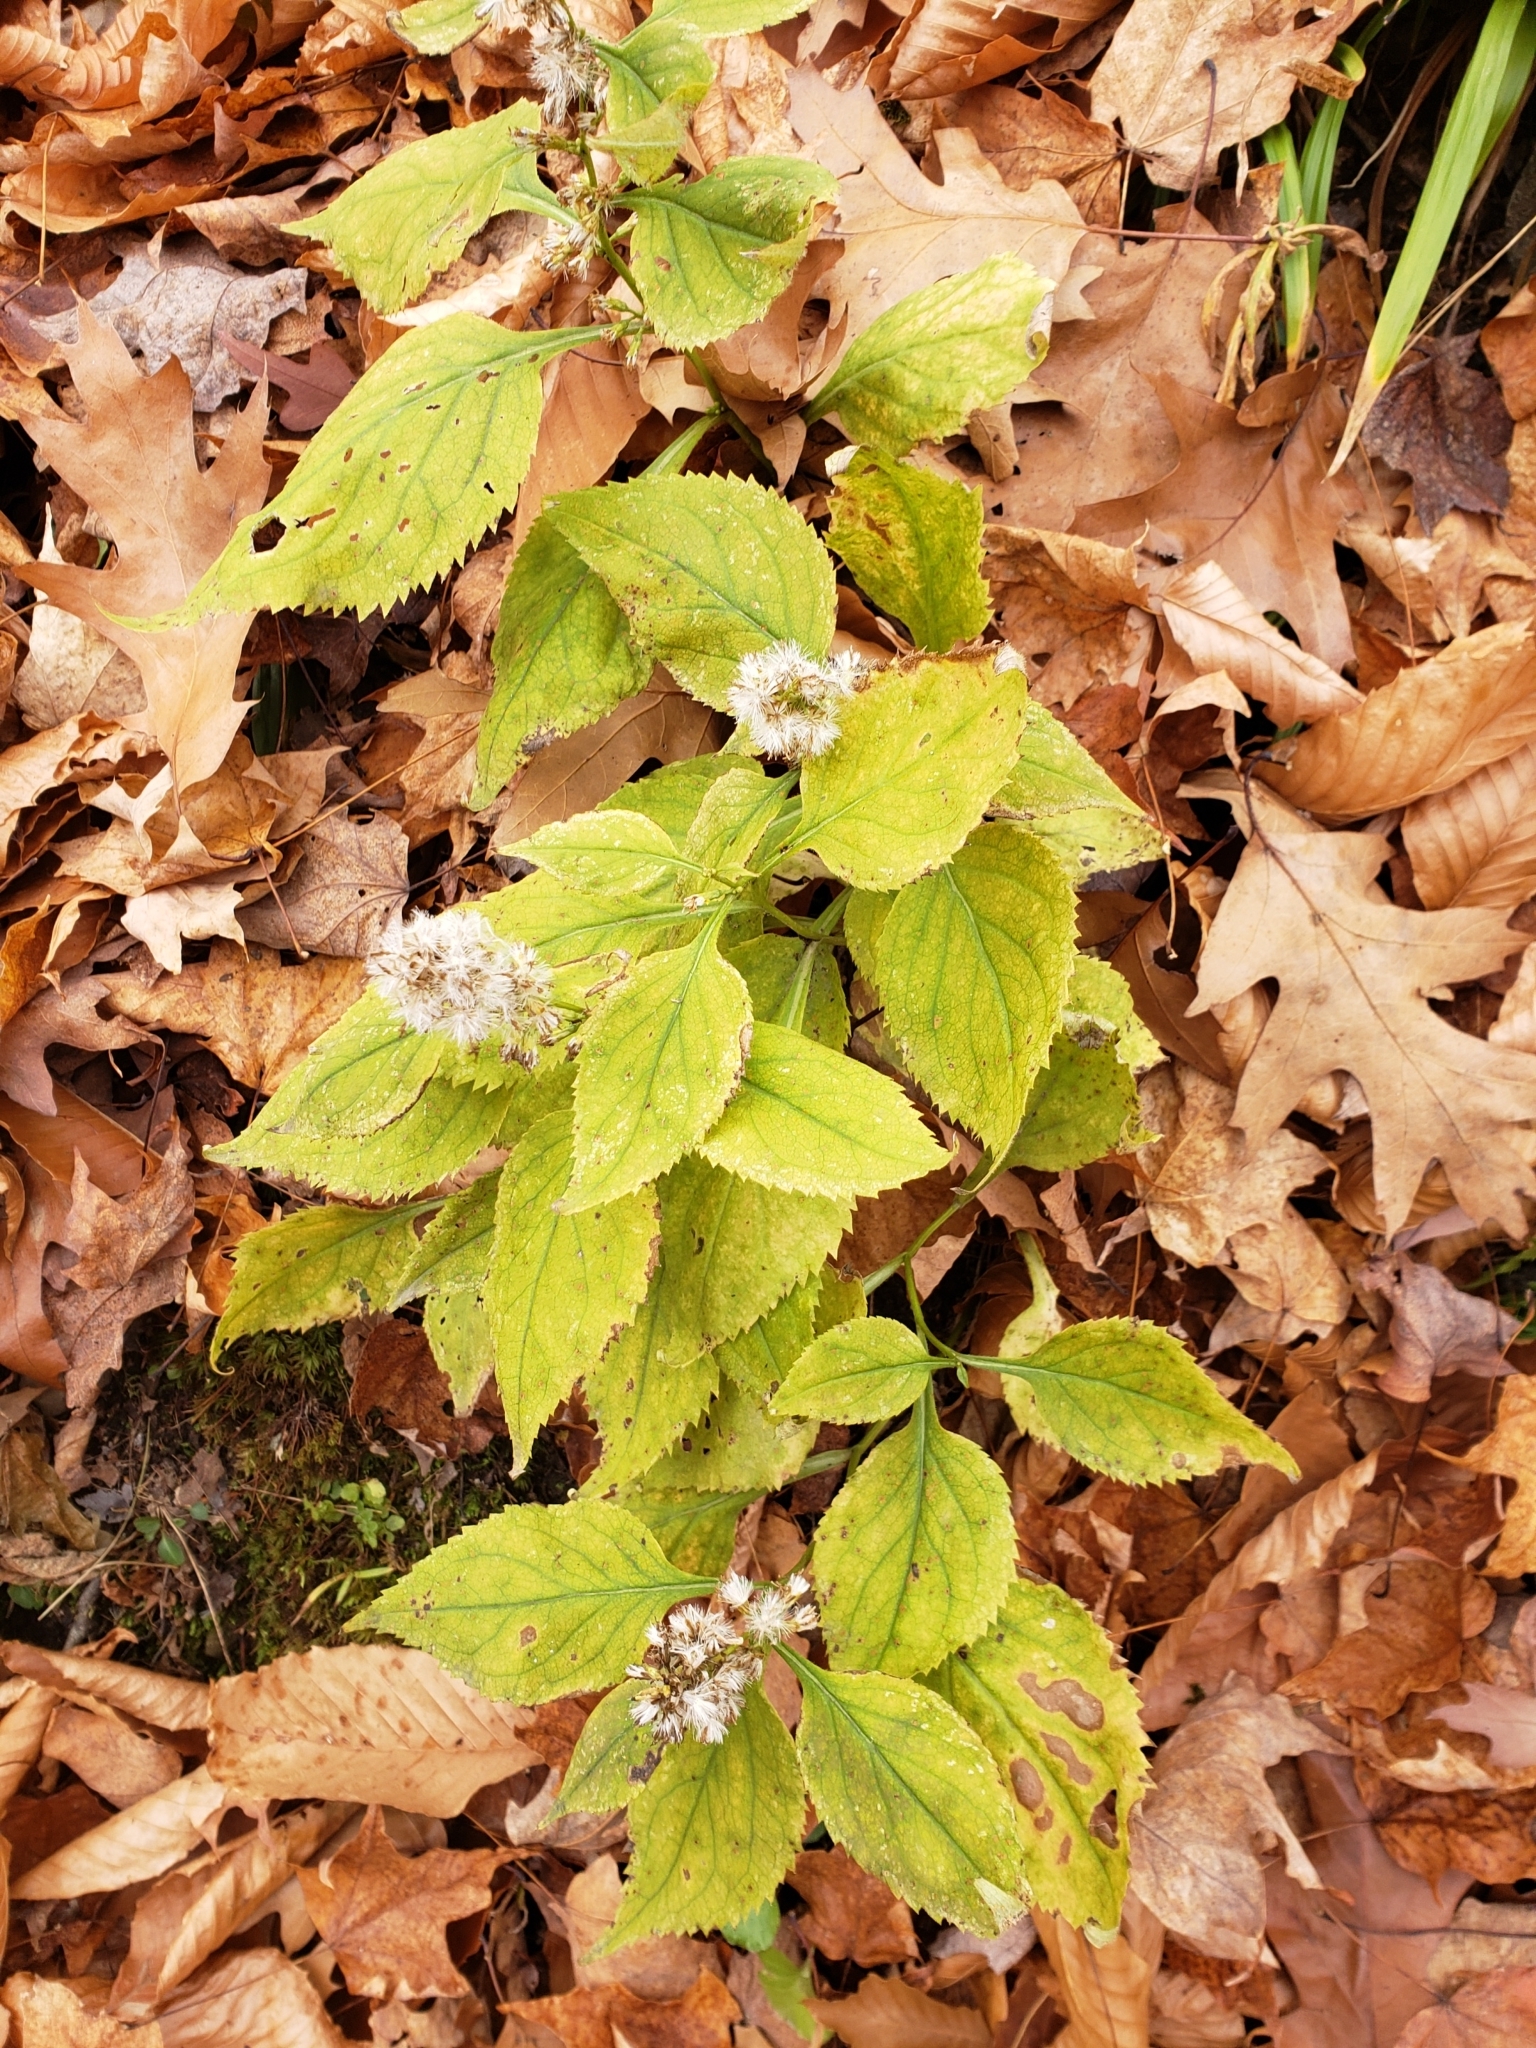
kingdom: Plantae
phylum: Tracheophyta
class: Magnoliopsida
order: Asterales
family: Asteraceae
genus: Solidago
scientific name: Solidago flexicaulis
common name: Zig-zag goldenrod
